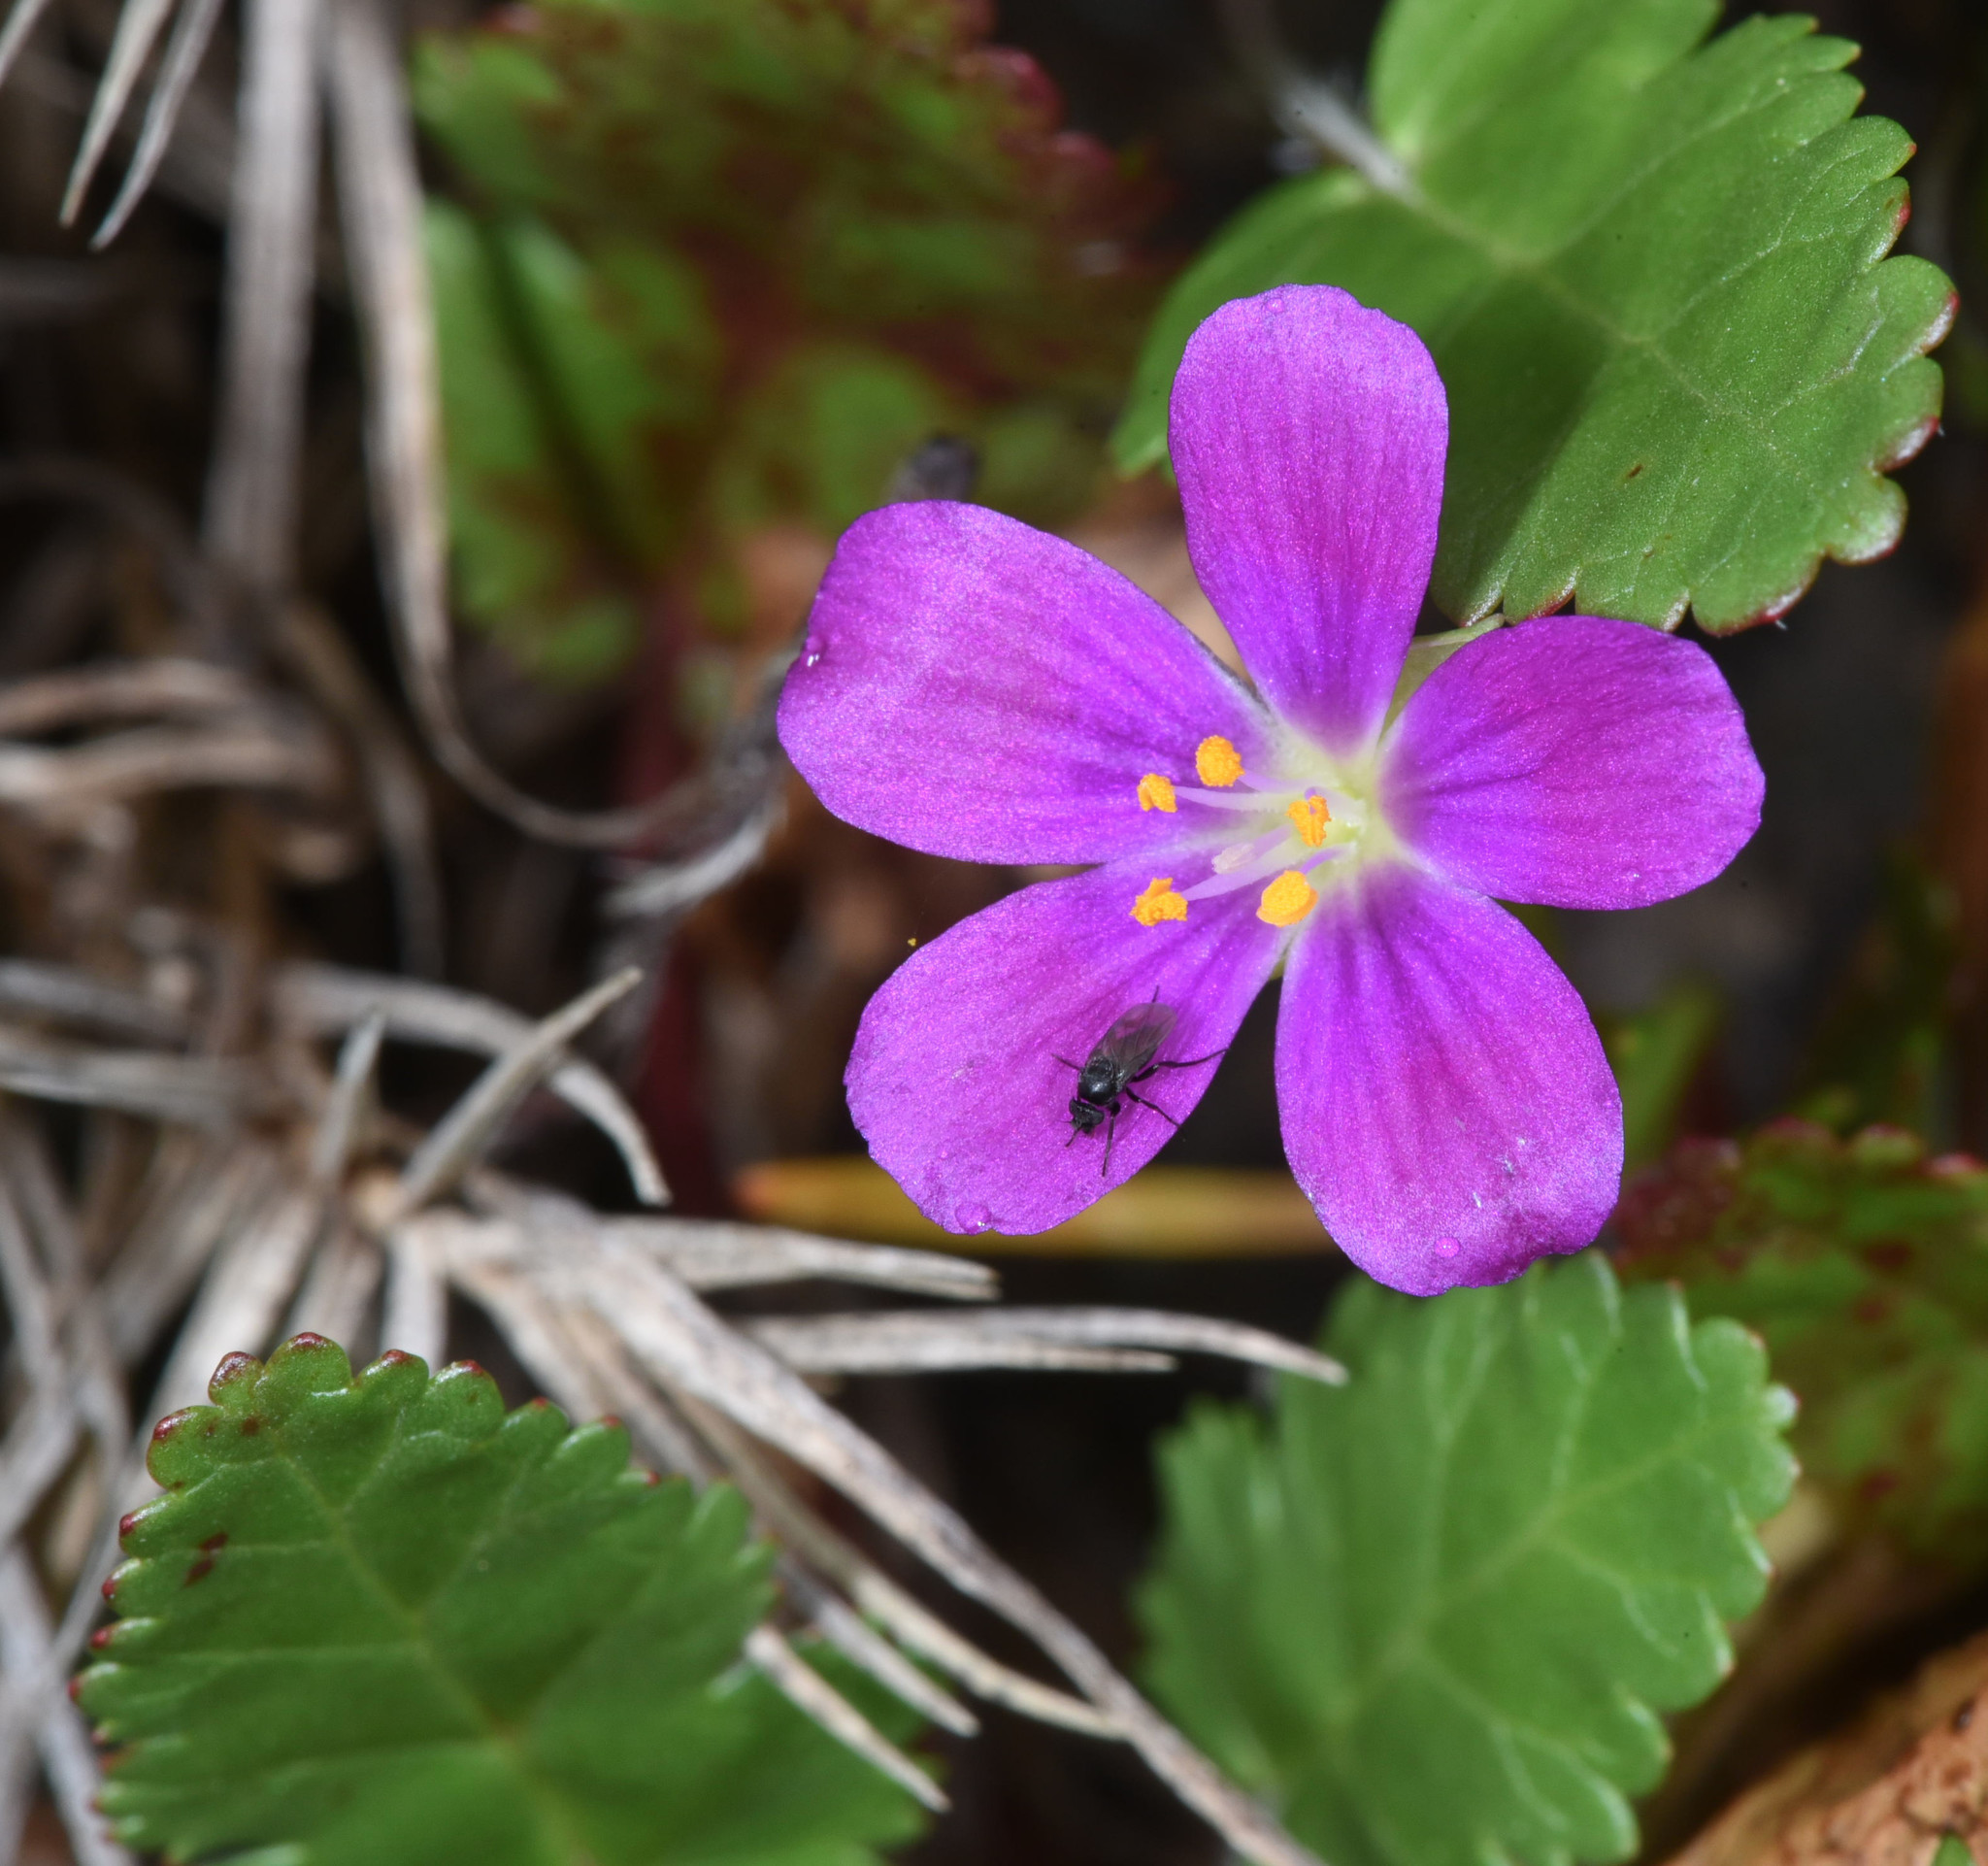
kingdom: Plantae
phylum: Tracheophyta
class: Magnoliopsida
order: Caryophyllales
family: Montiaceae
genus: Calandrinia
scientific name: Calandrinia menziesii
